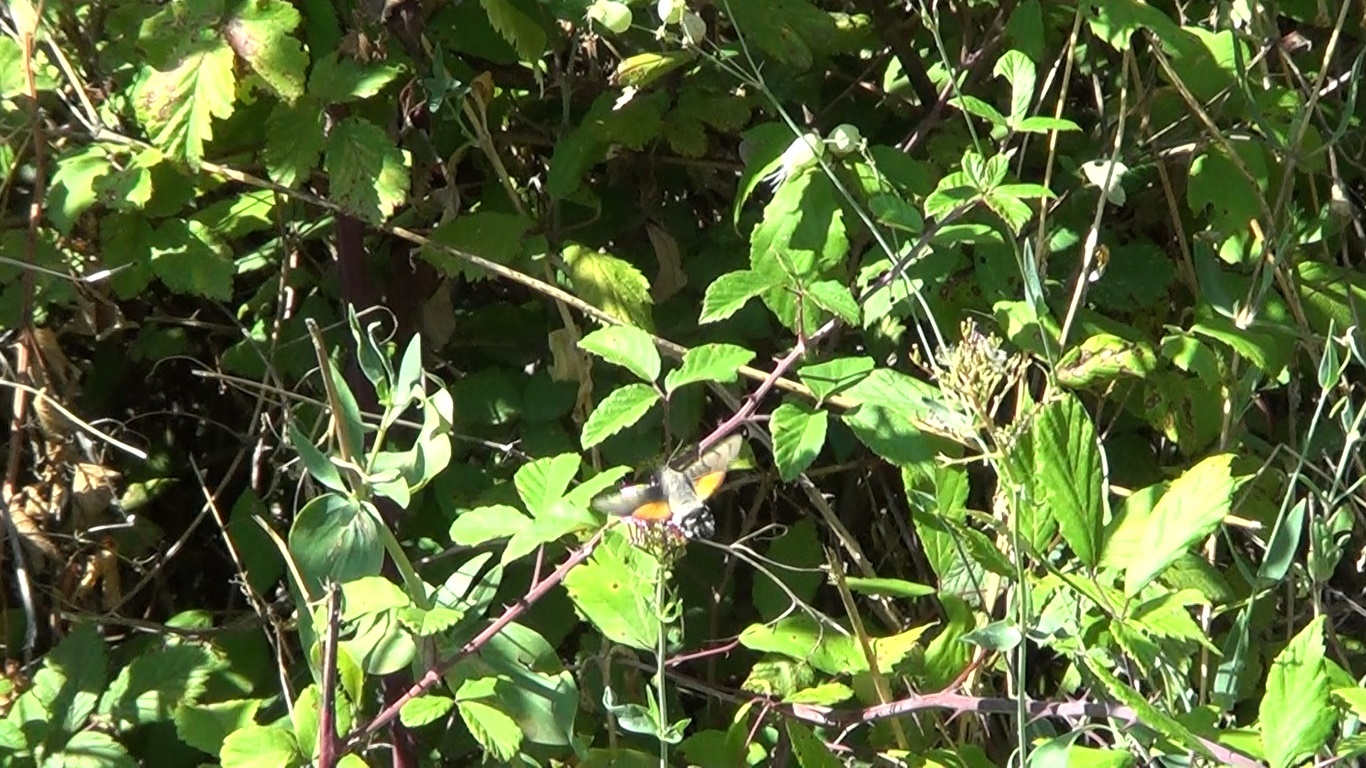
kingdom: Animalia
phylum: Arthropoda
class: Insecta
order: Lepidoptera
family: Sphingidae
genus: Macroglossum
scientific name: Macroglossum stellatarum
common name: Humming-bird hawk-moth
